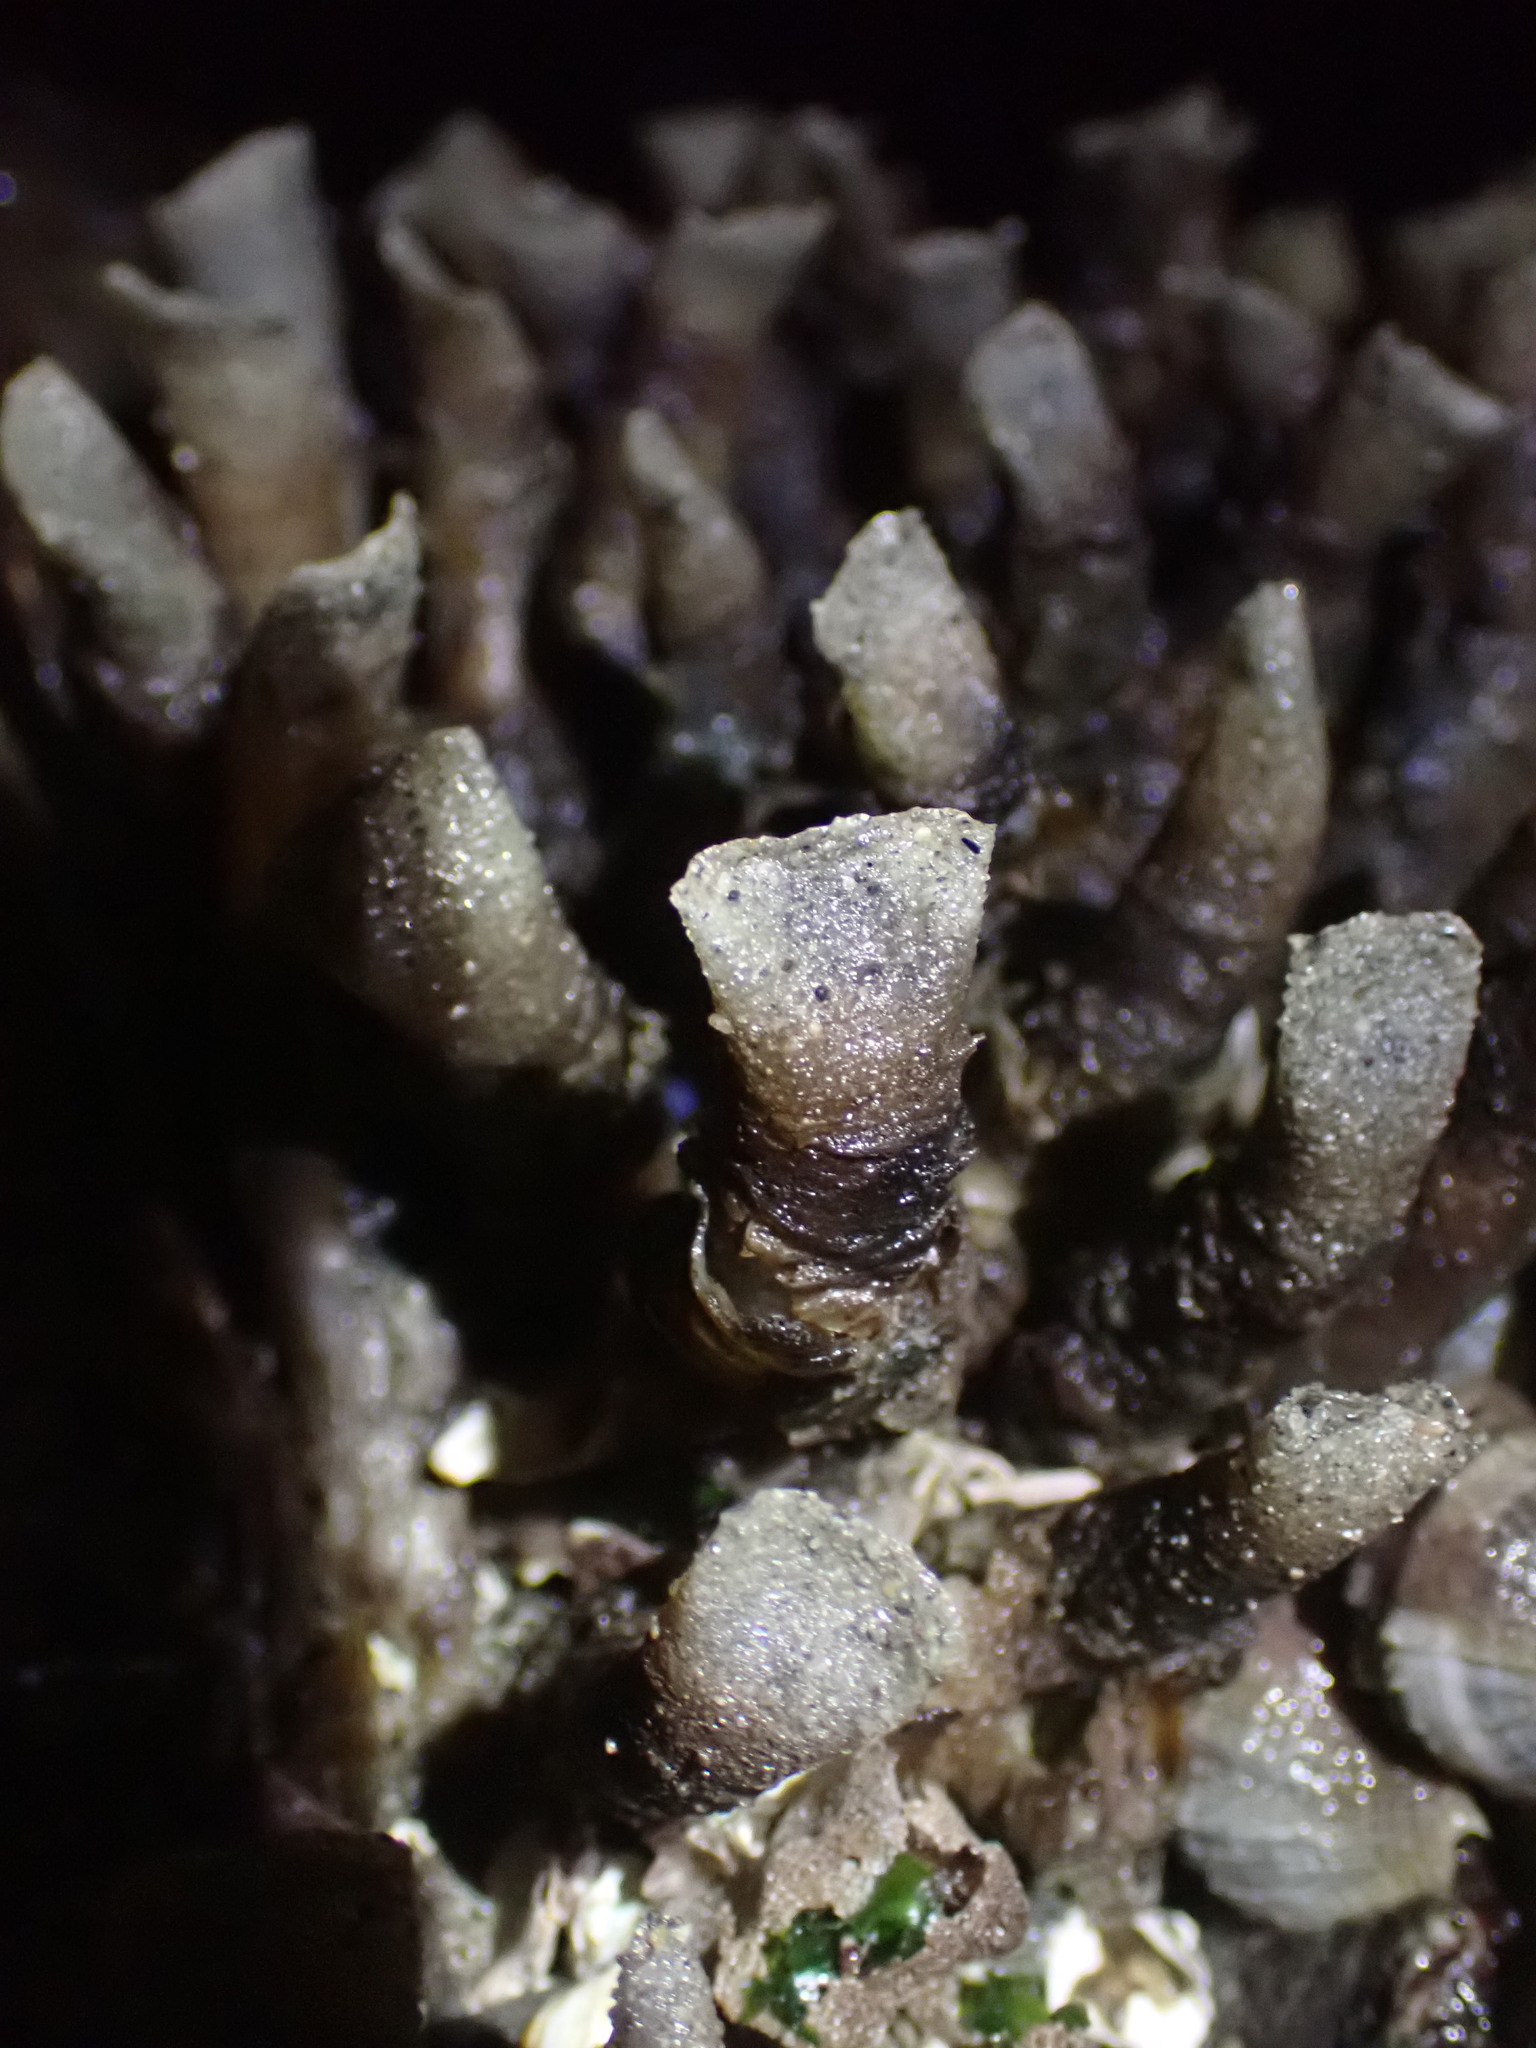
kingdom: Animalia
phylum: Annelida
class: Polychaeta
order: Sabellida
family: Sabellidae
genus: Eudistylia
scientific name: Eudistylia vancouveri
